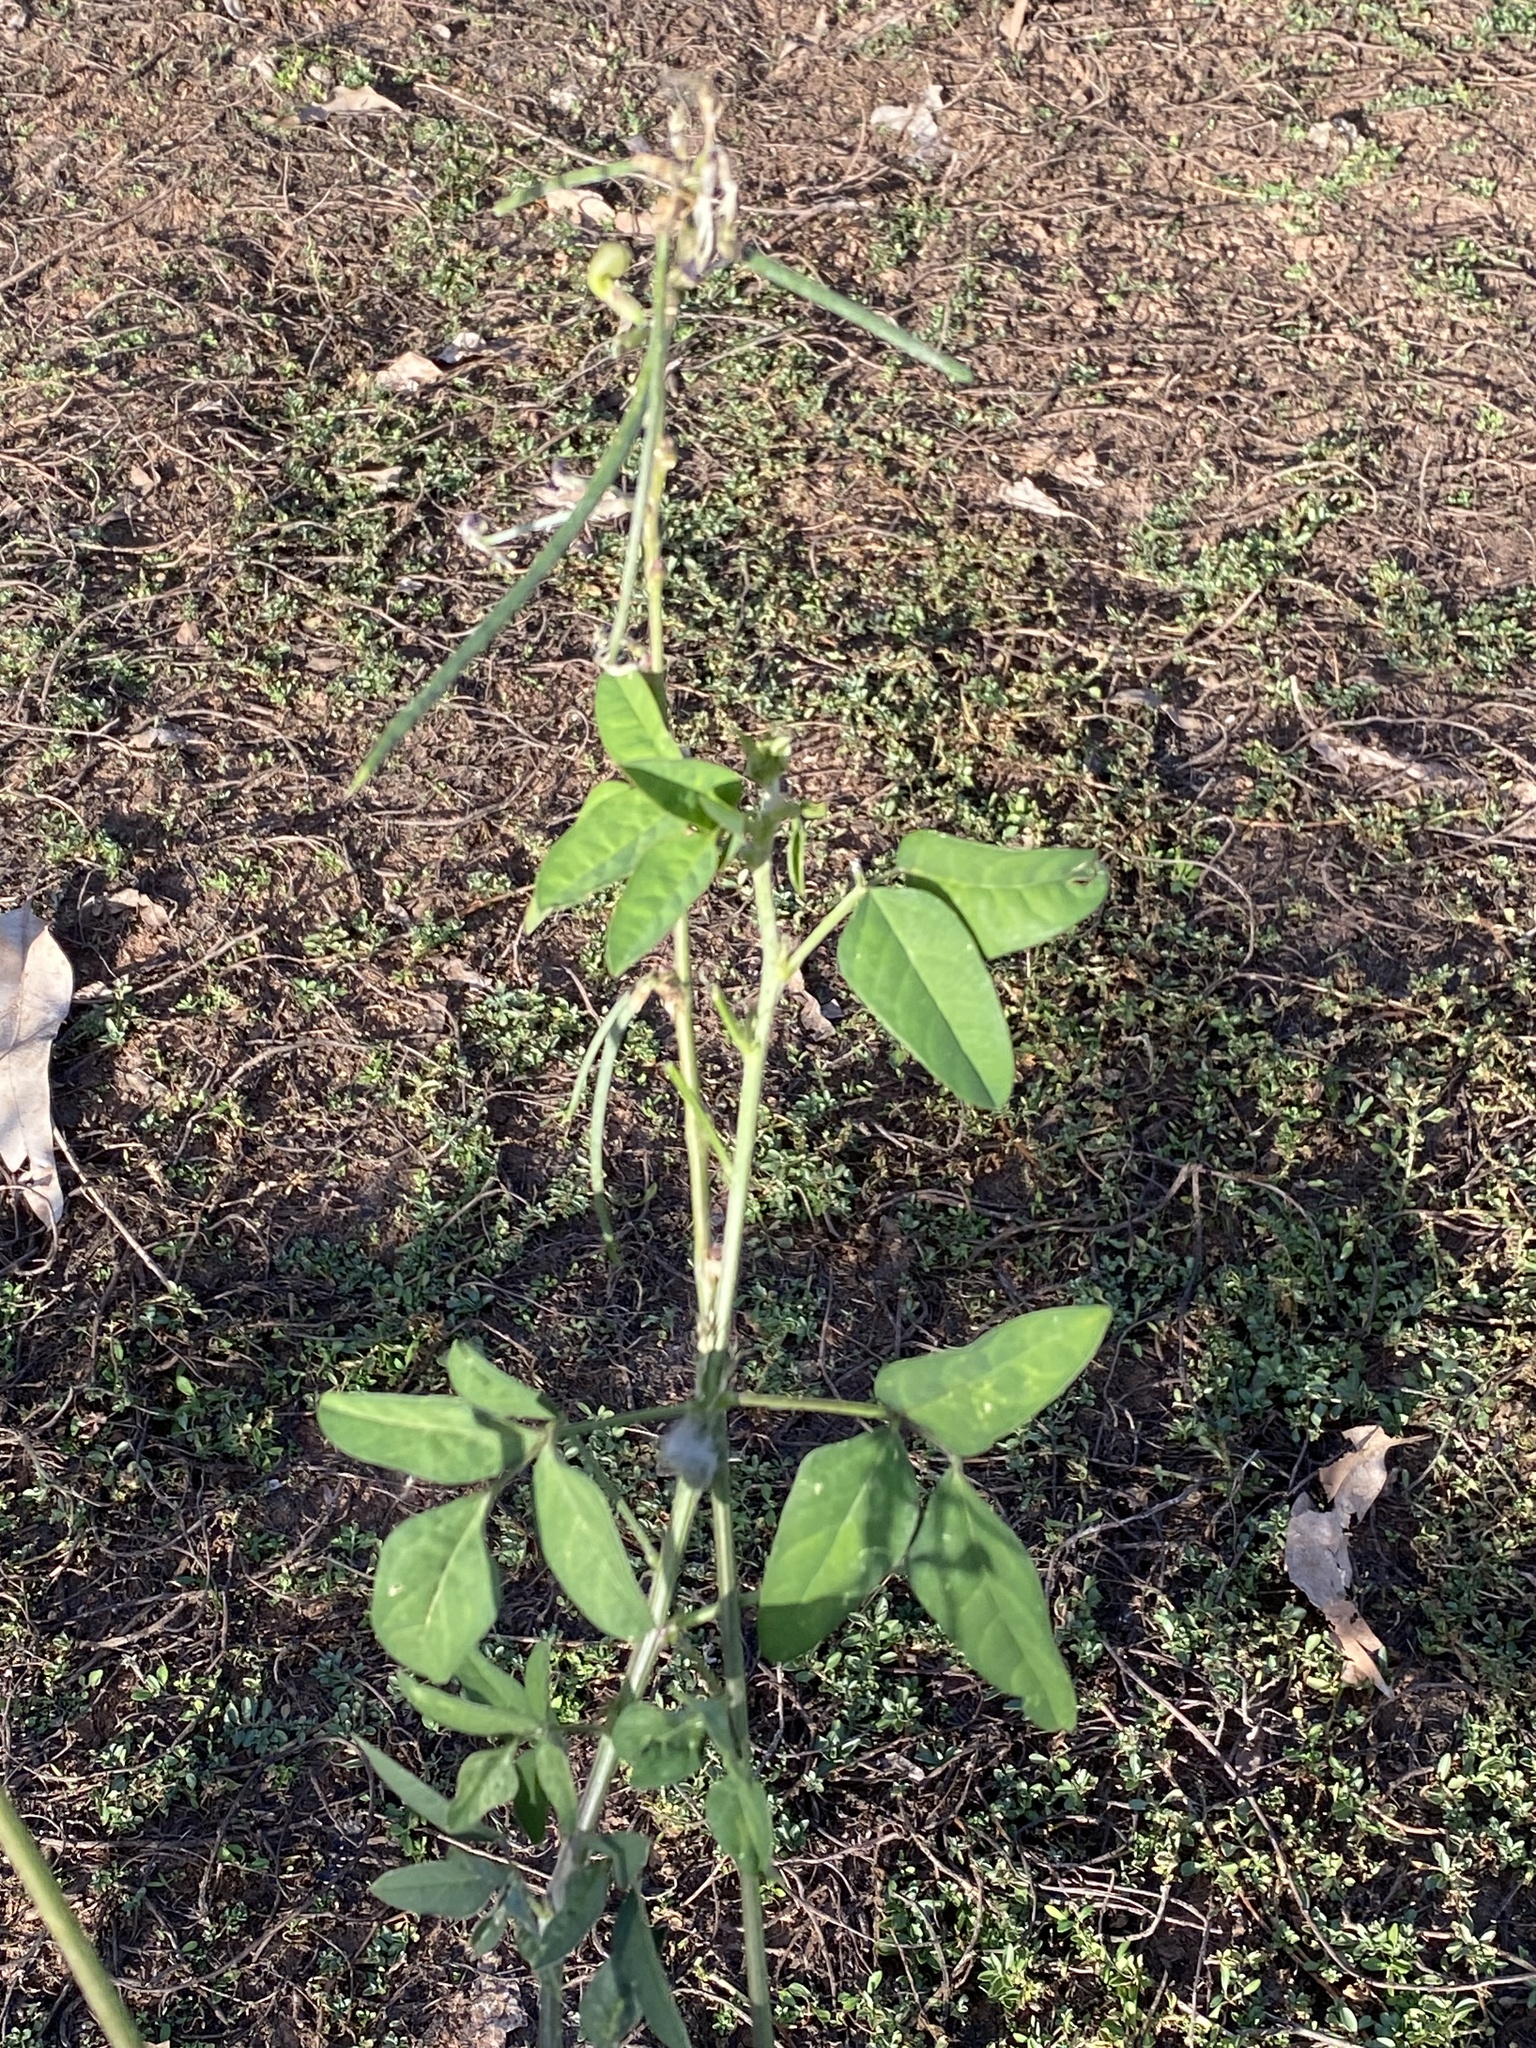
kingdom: Plantae
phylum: Tracheophyta
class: Magnoliopsida
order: Fabales
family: Fabaceae
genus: Macroptilium
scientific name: Macroptilium lathyroides
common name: Wild bushbean
